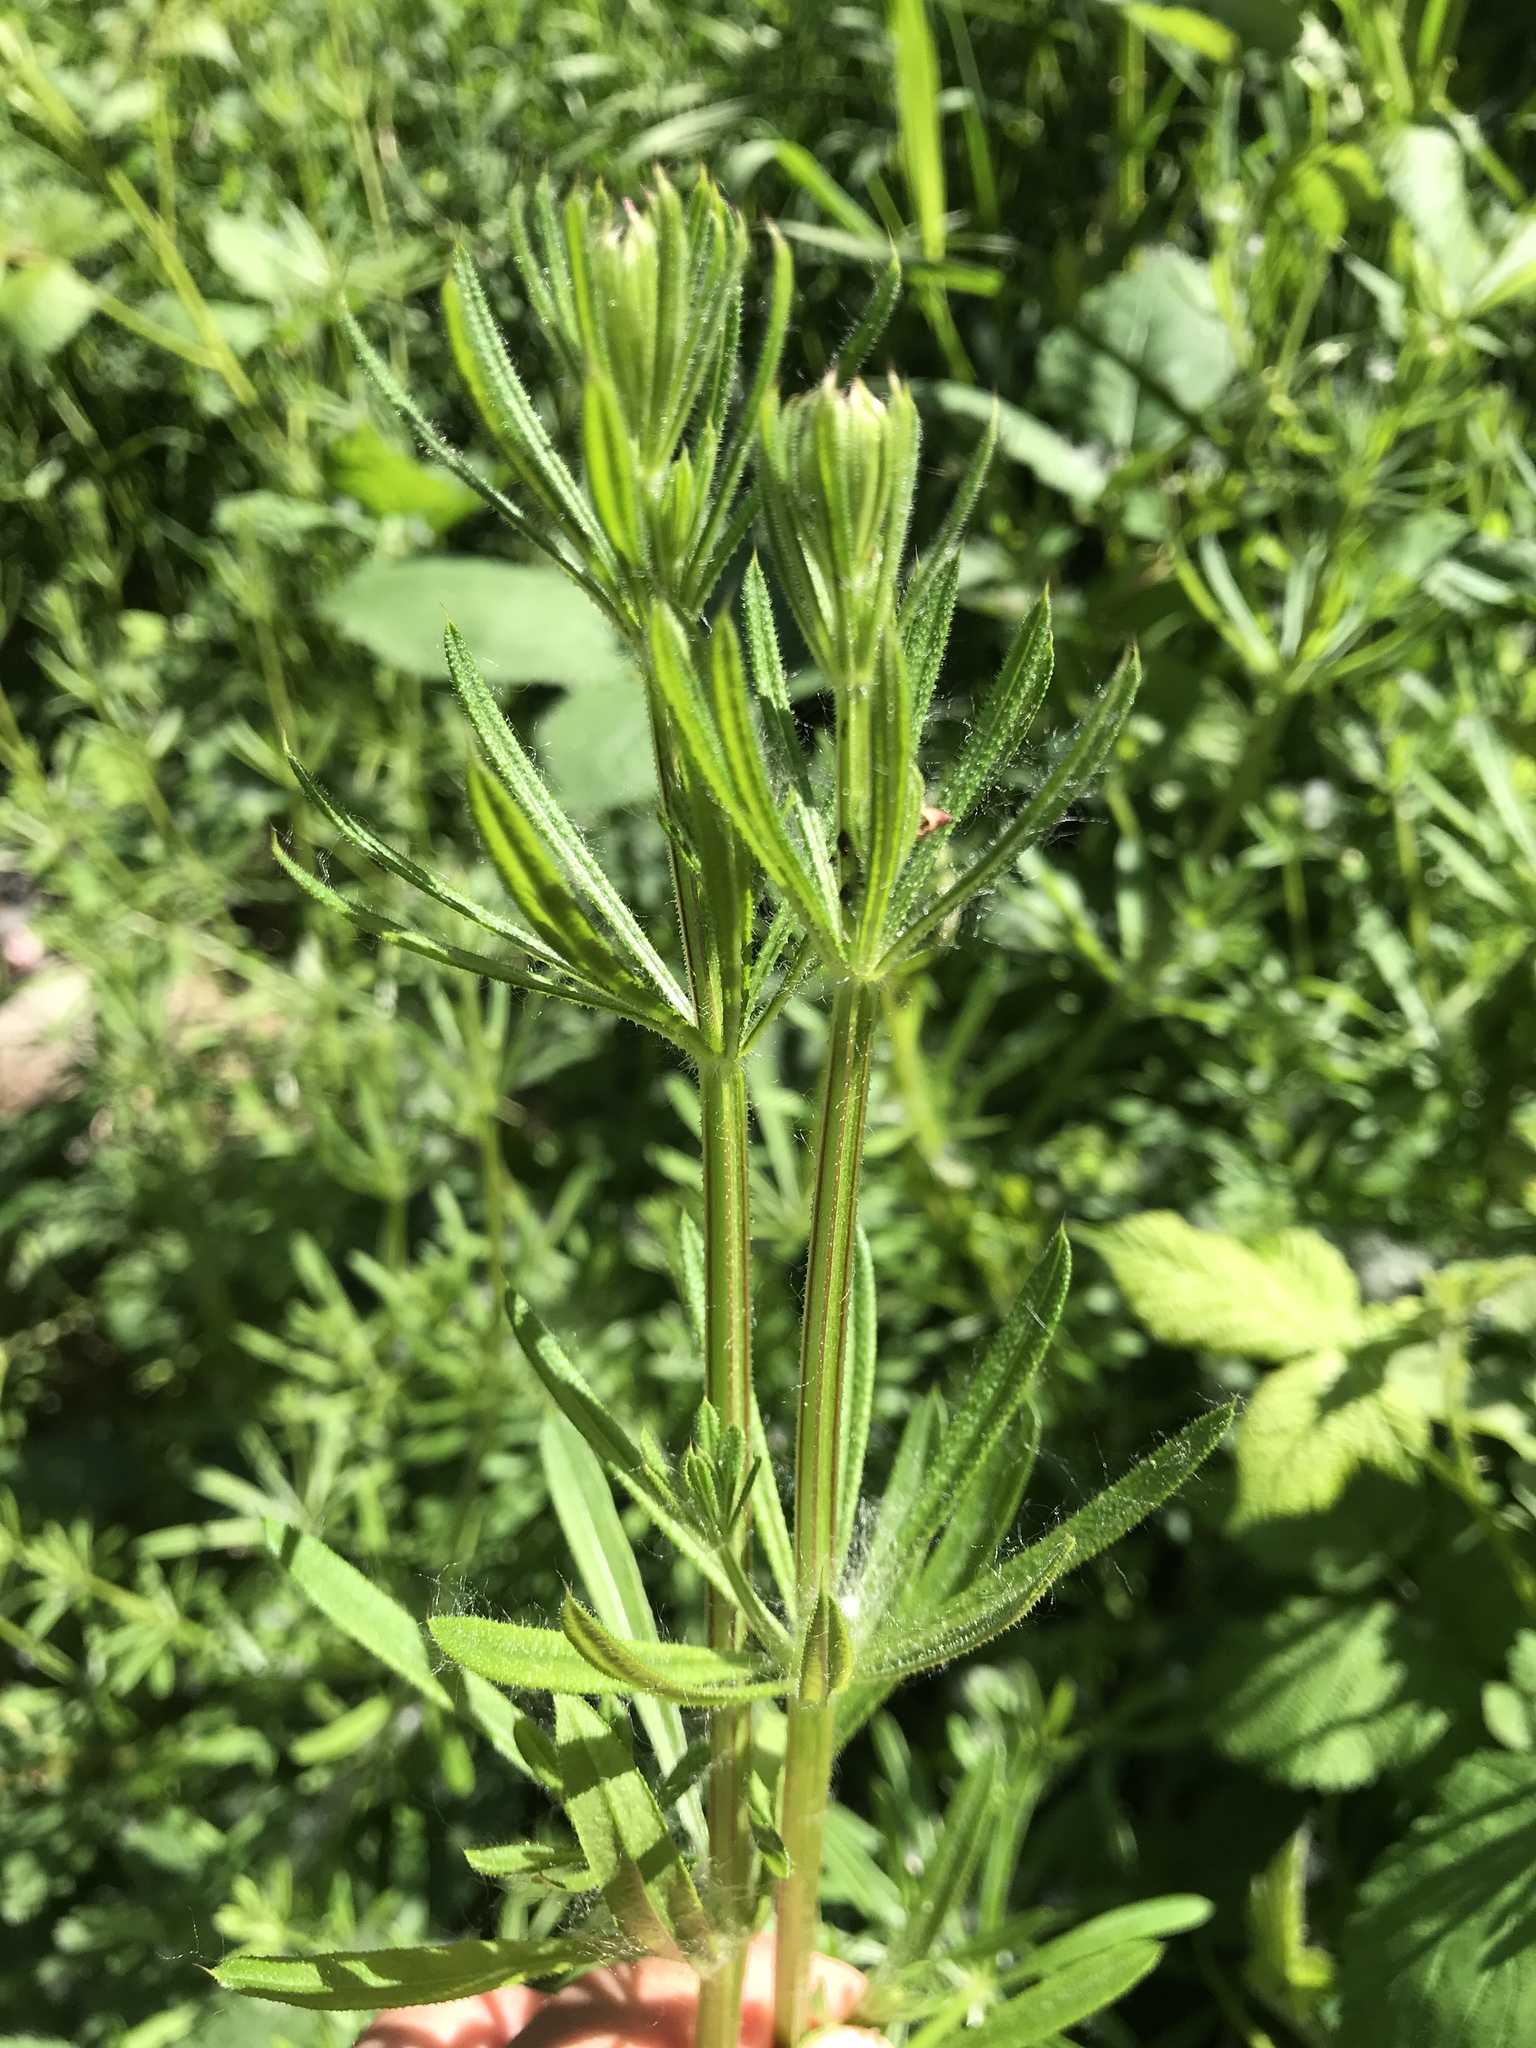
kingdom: Plantae
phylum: Tracheophyta
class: Magnoliopsida
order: Gentianales
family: Rubiaceae
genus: Galium
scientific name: Galium aparine
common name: Cleavers
